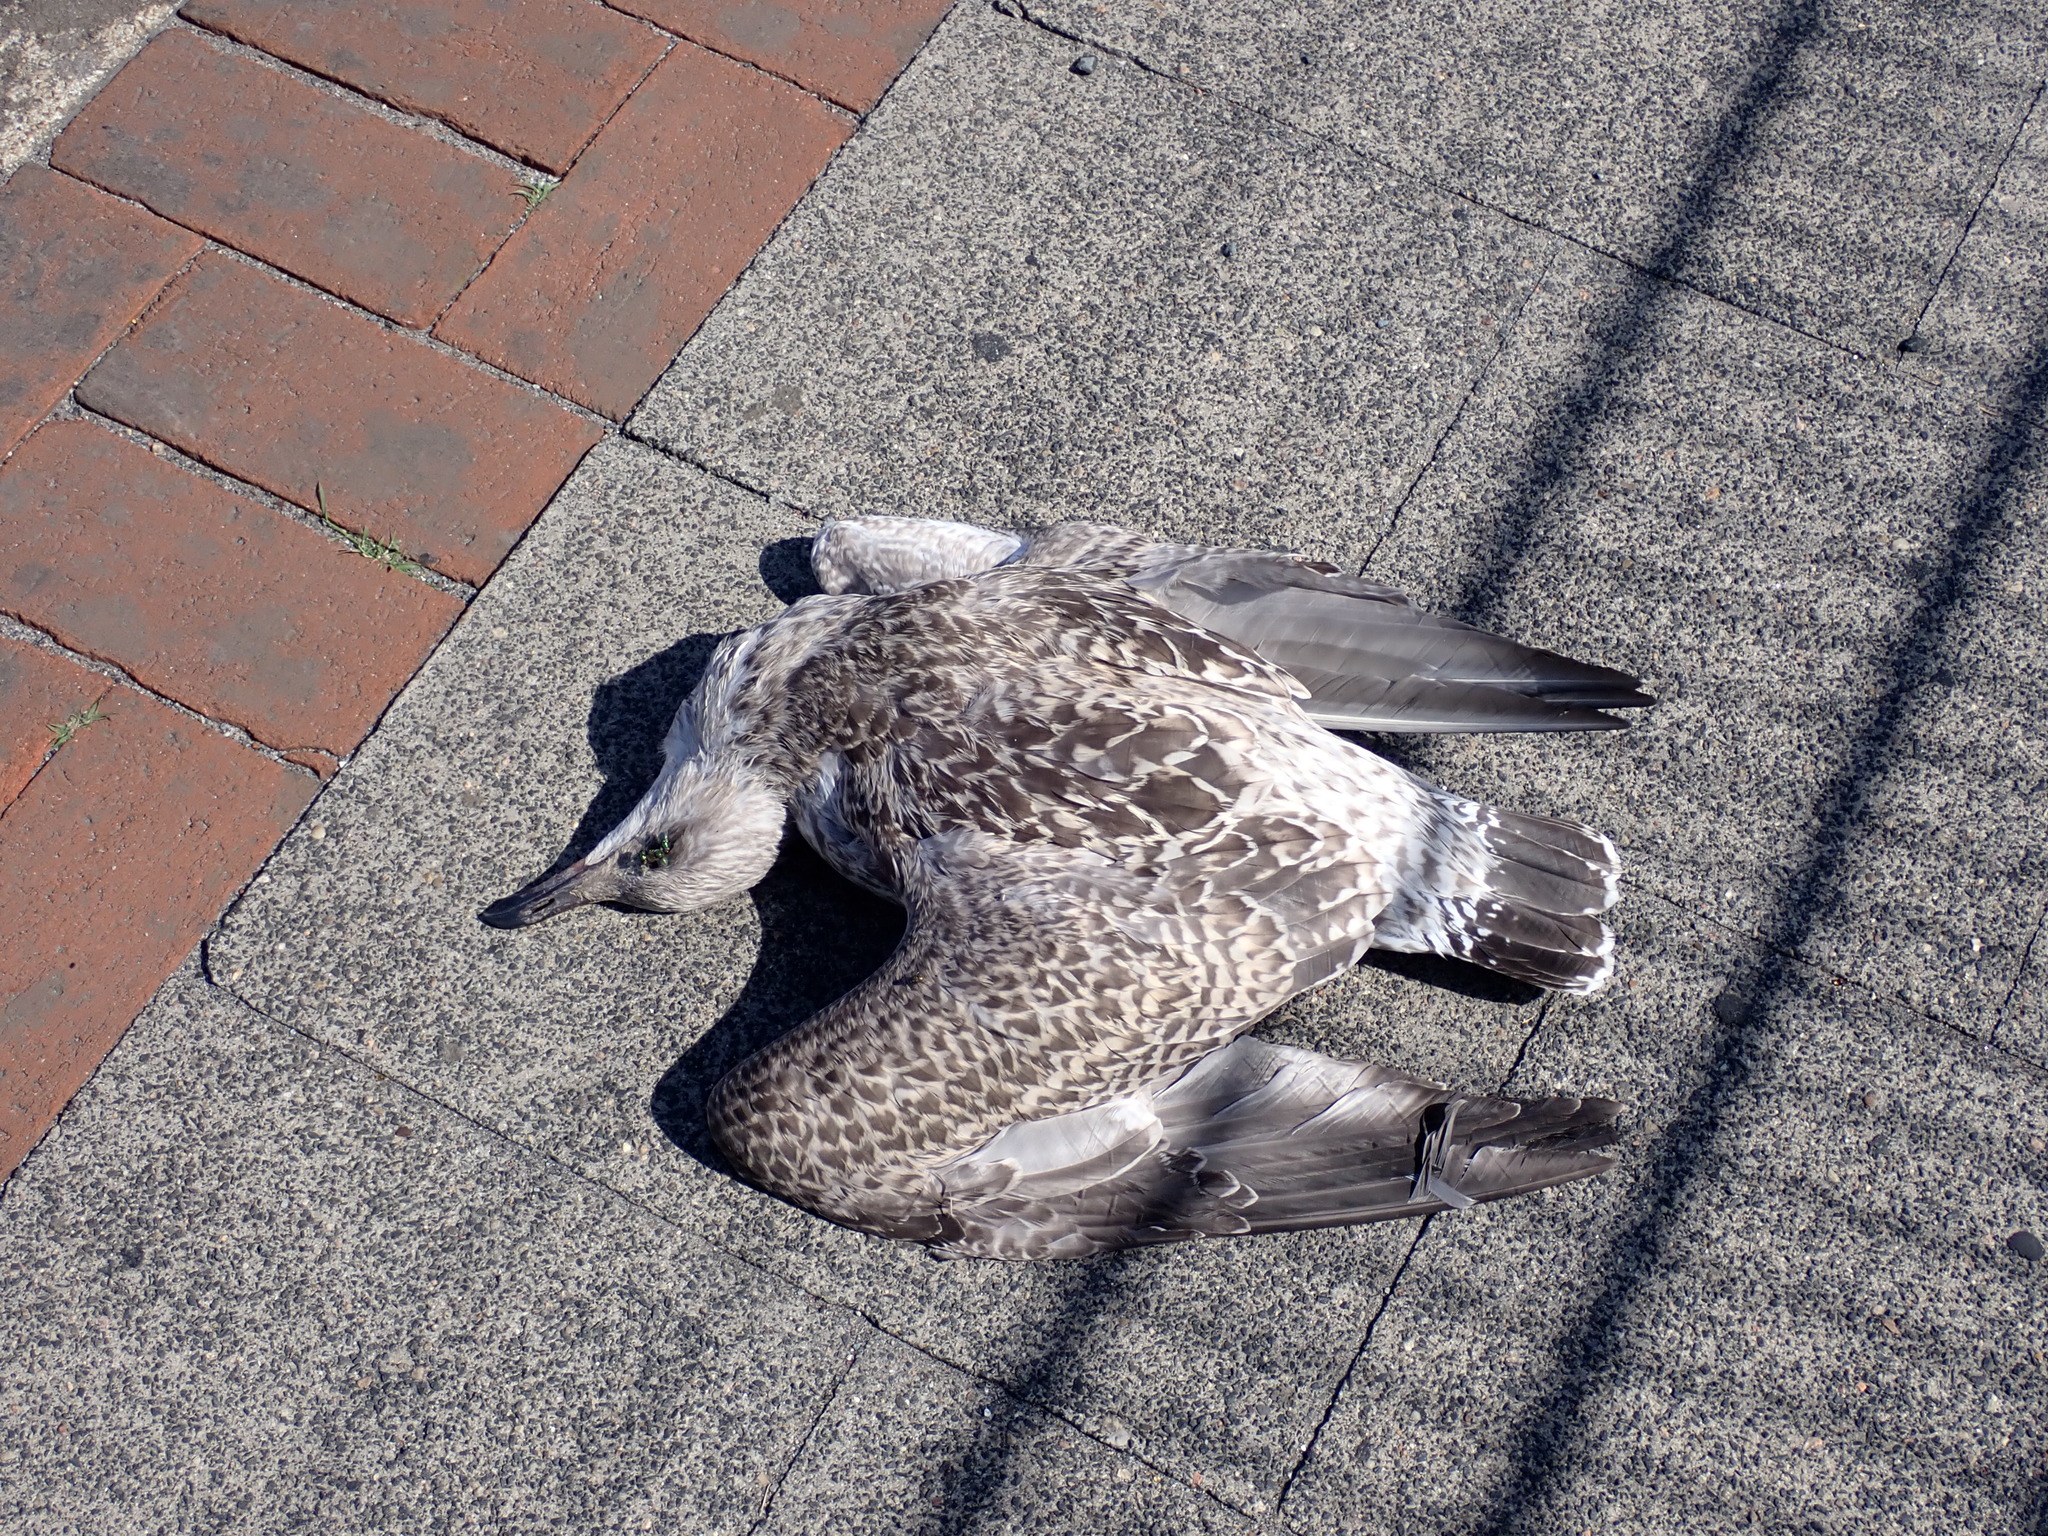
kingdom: Animalia
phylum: Chordata
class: Aves
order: Charadriiformes
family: Laridae
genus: Larus
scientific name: Larus argentatus
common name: Herring gull
